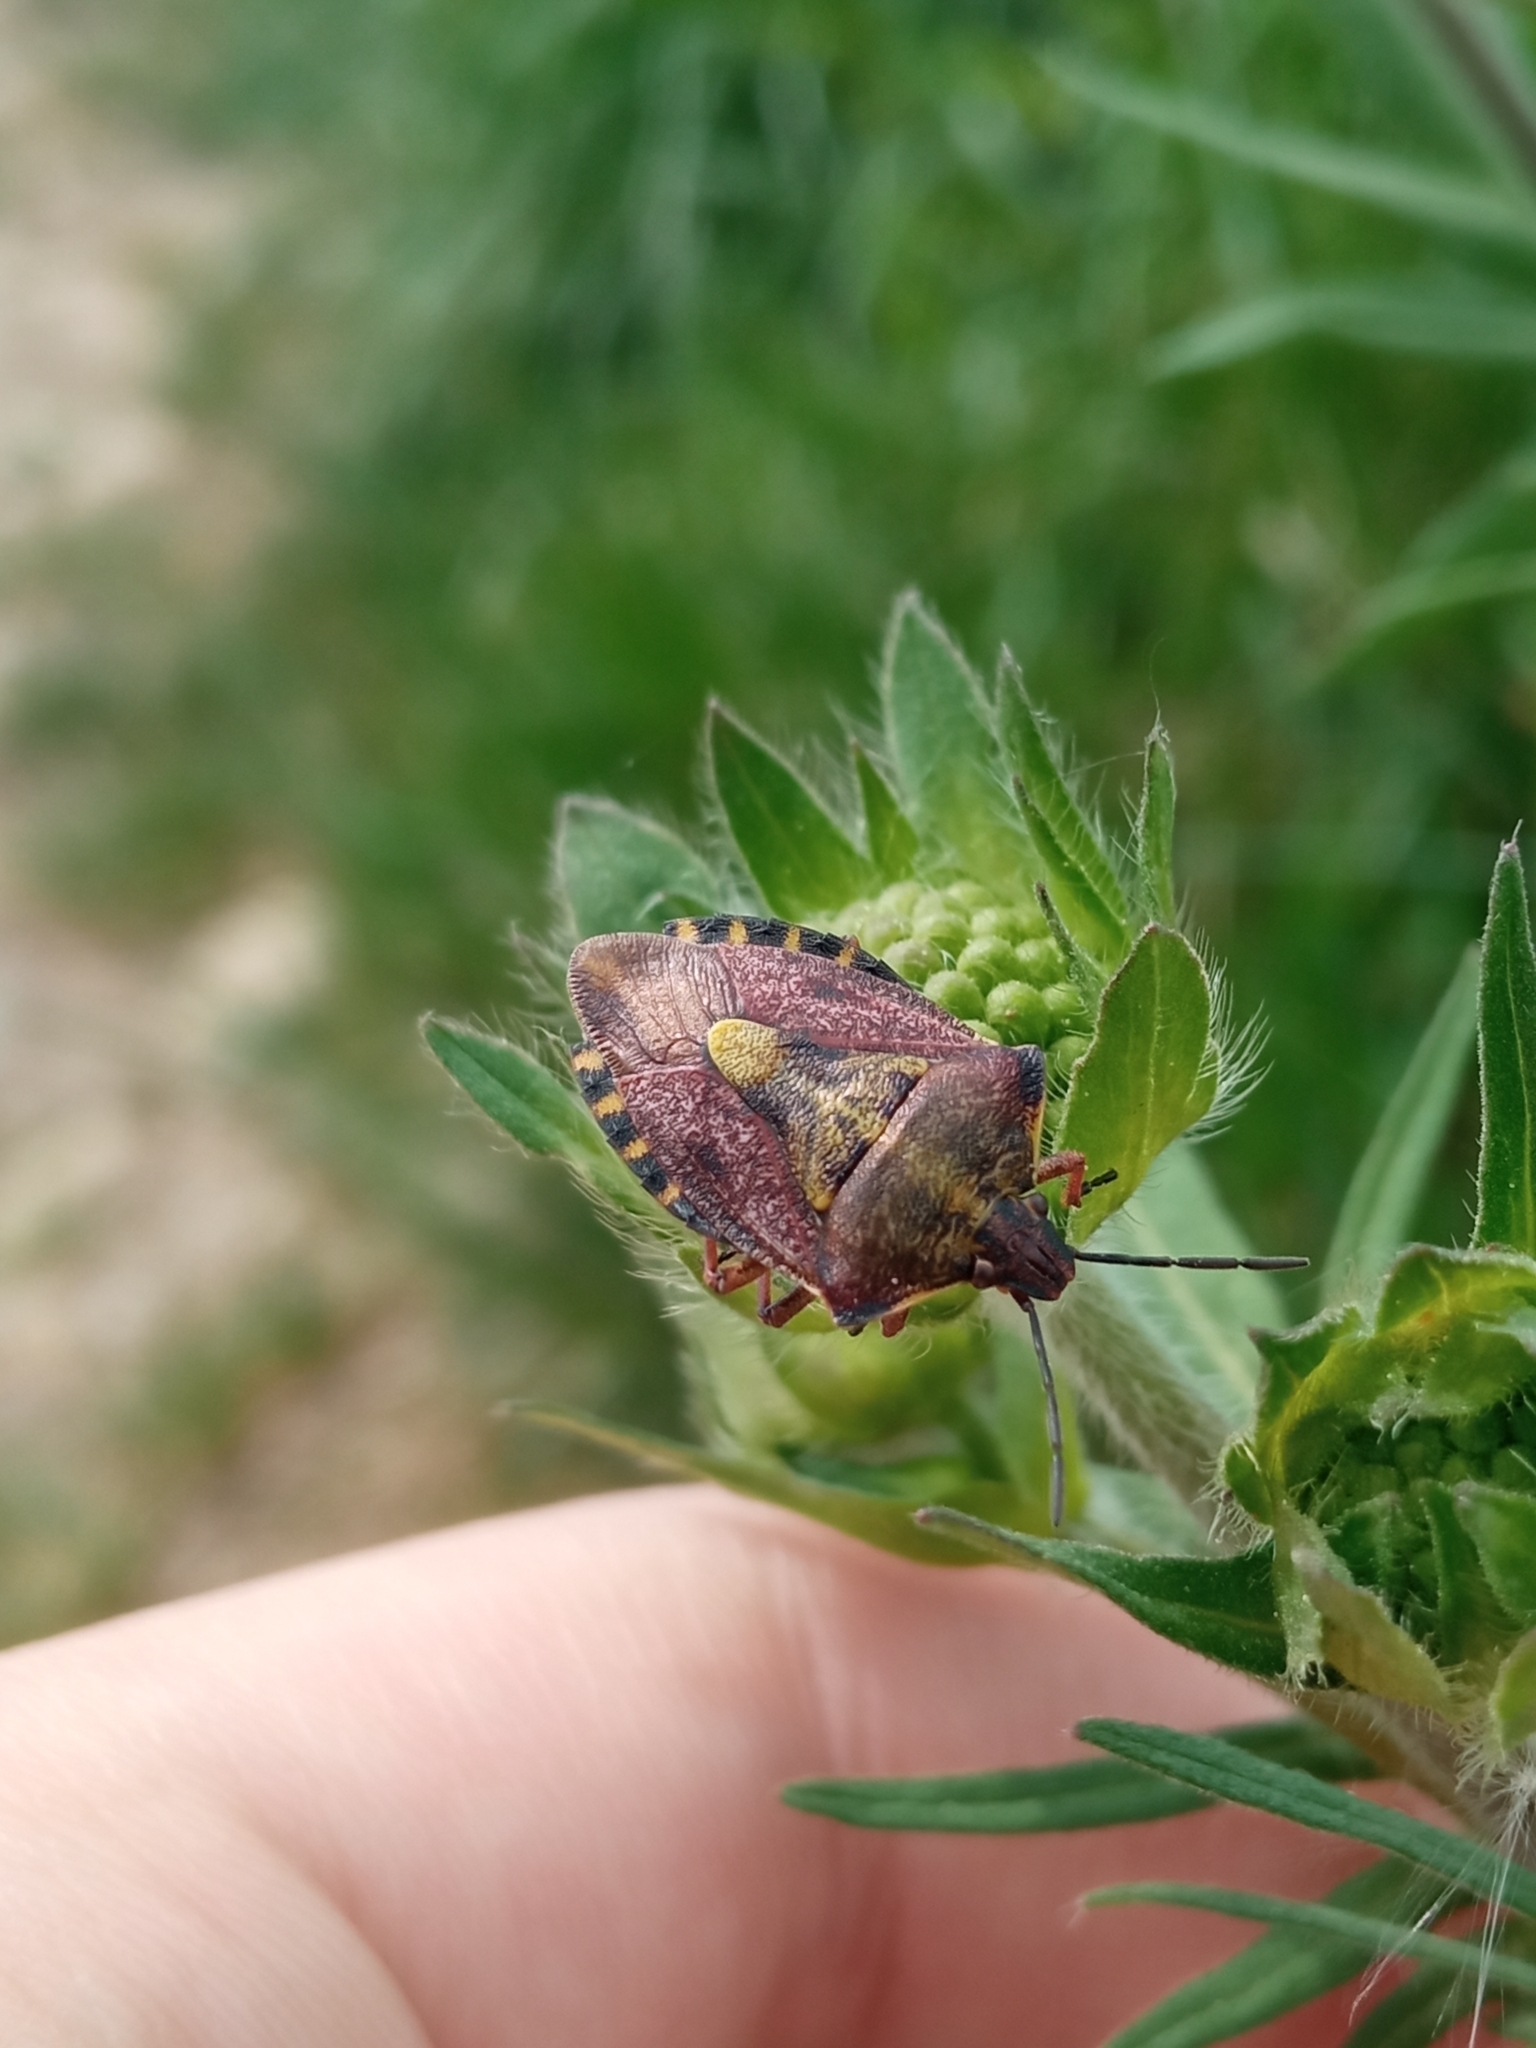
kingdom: Animalia
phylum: Arthropoda
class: Insecta
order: Hemiptera
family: Pentatomidae
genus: Carpocoris
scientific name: Carpocoris purpureipennis
